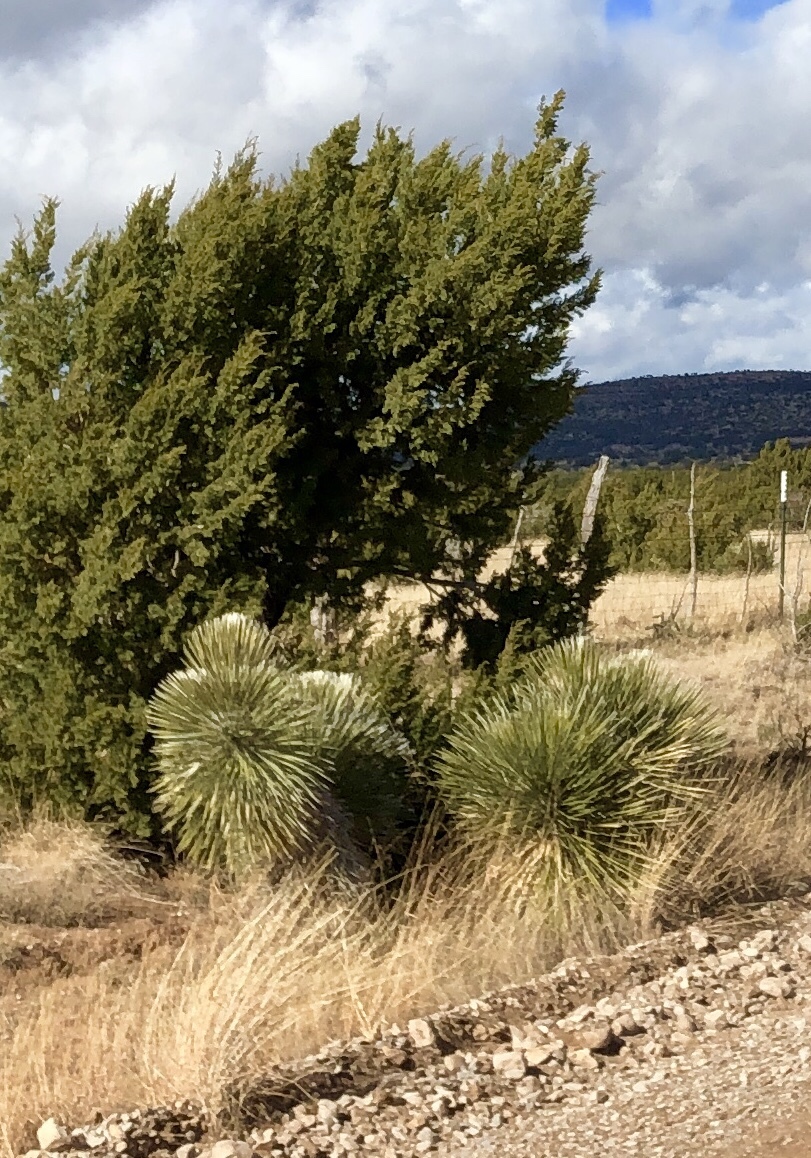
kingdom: Plantae
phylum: Tracheophyta
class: Liliopsida
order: Asparagales
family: Asparagaceae
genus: Yucca
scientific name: Yucca elata
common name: Palmella
